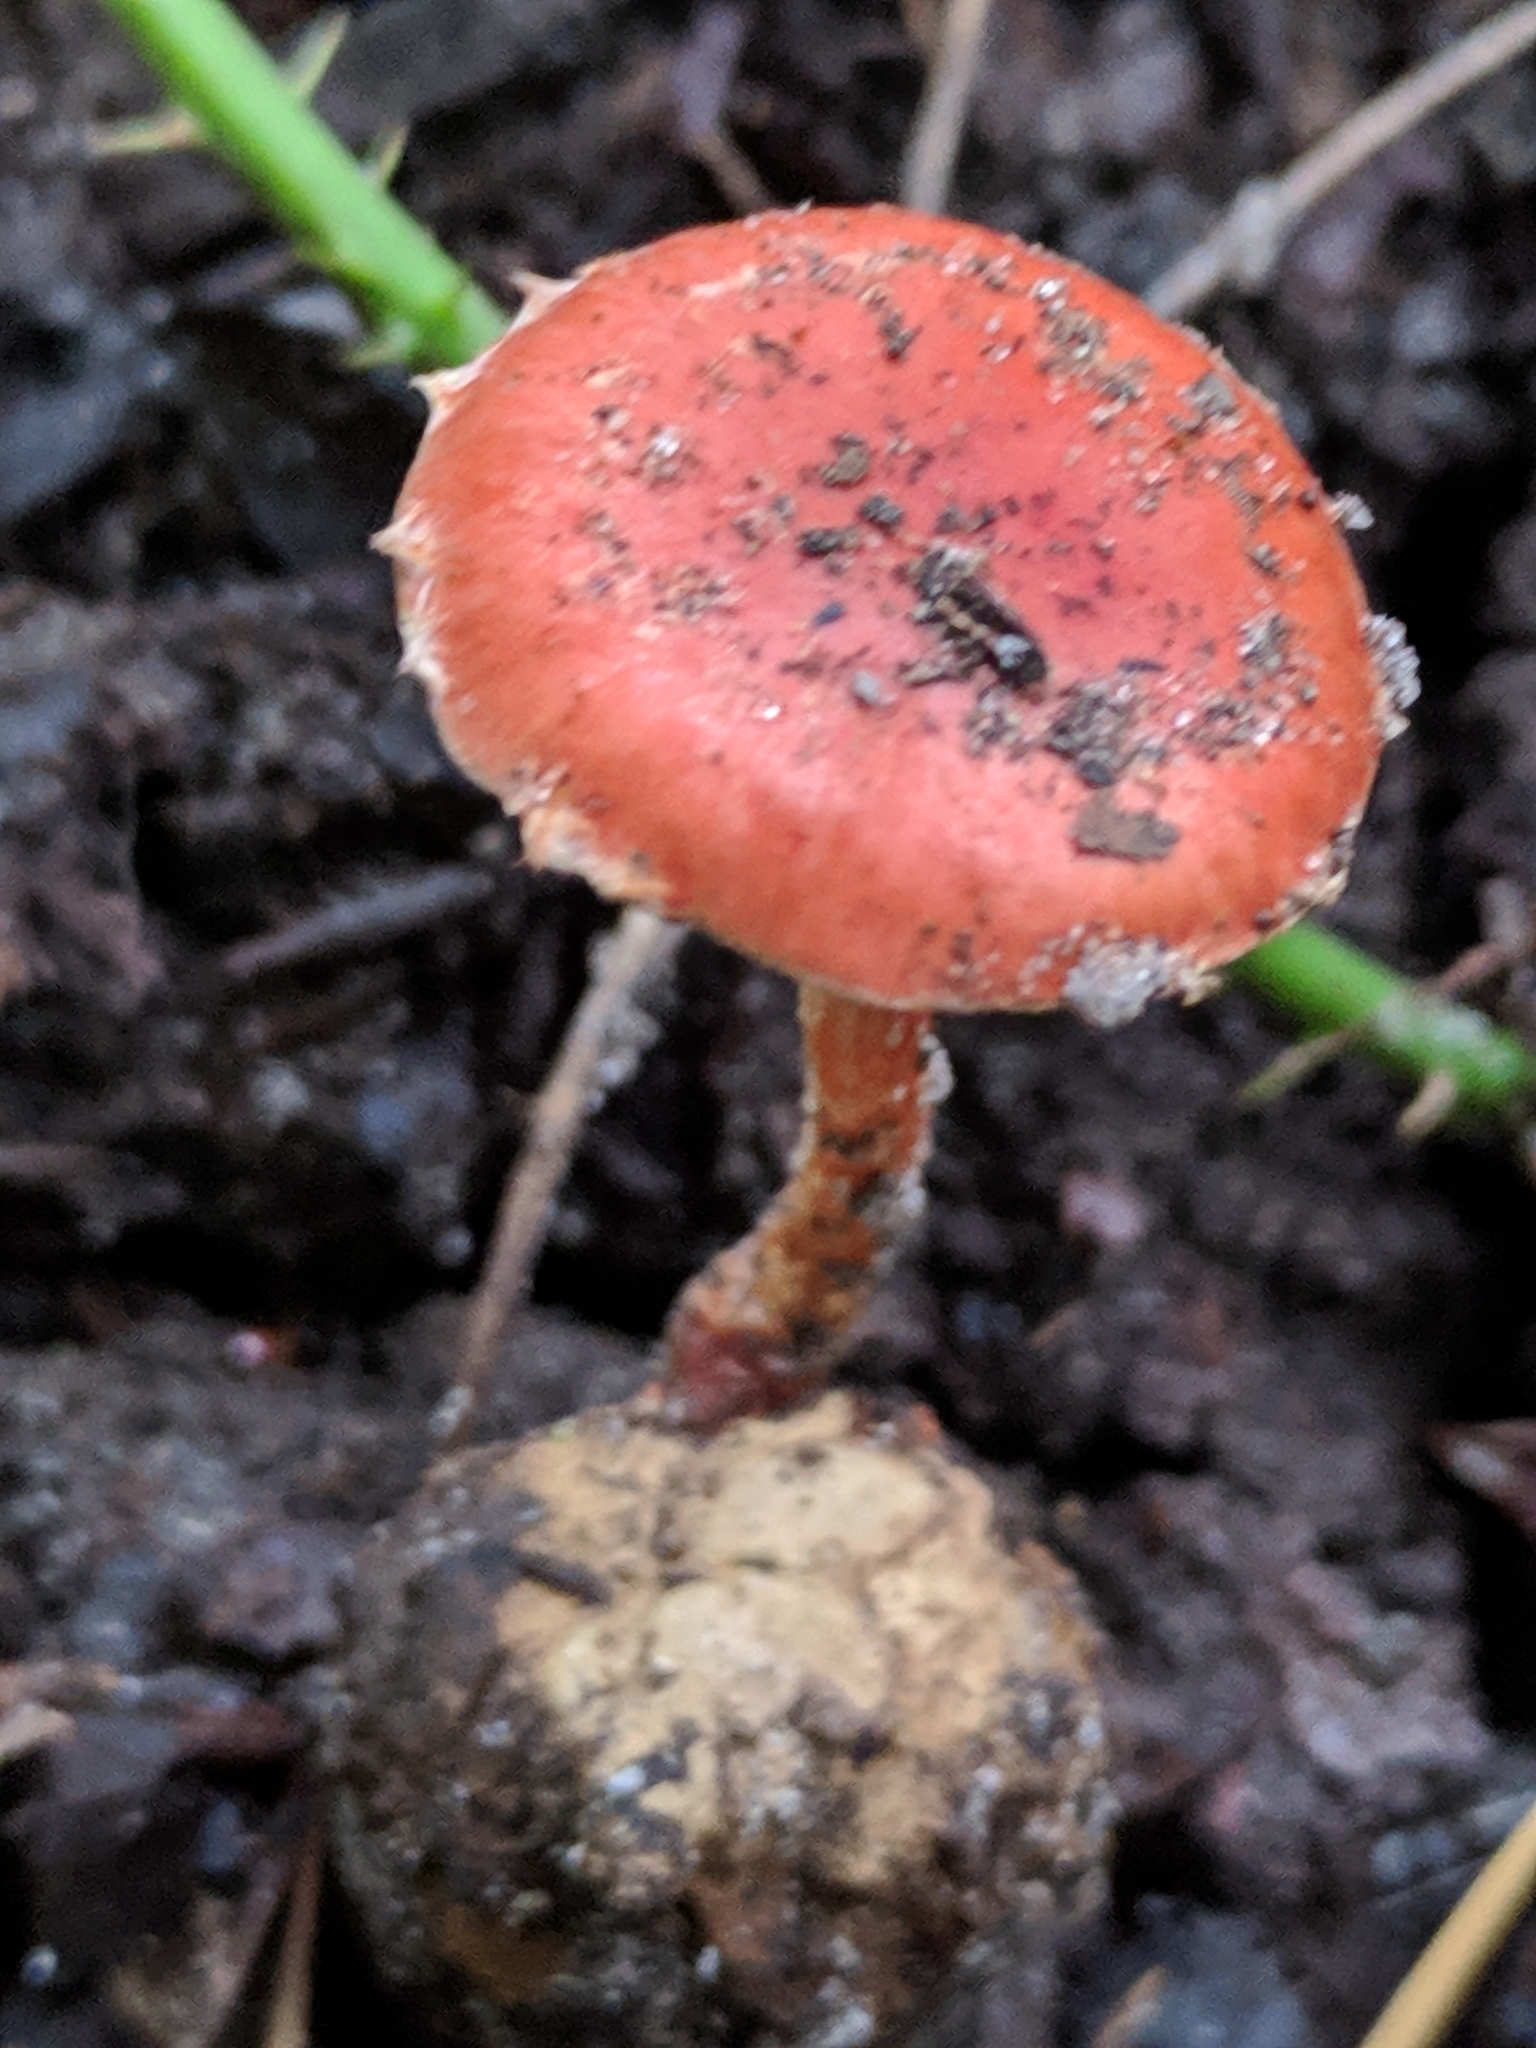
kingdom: Fungi
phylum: Basidiomycota
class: Agaricomycetes
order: Agaricales
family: Strophariaceae
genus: Leratiomyces
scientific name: Leratiomyces ceres
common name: Redlead roundhead
